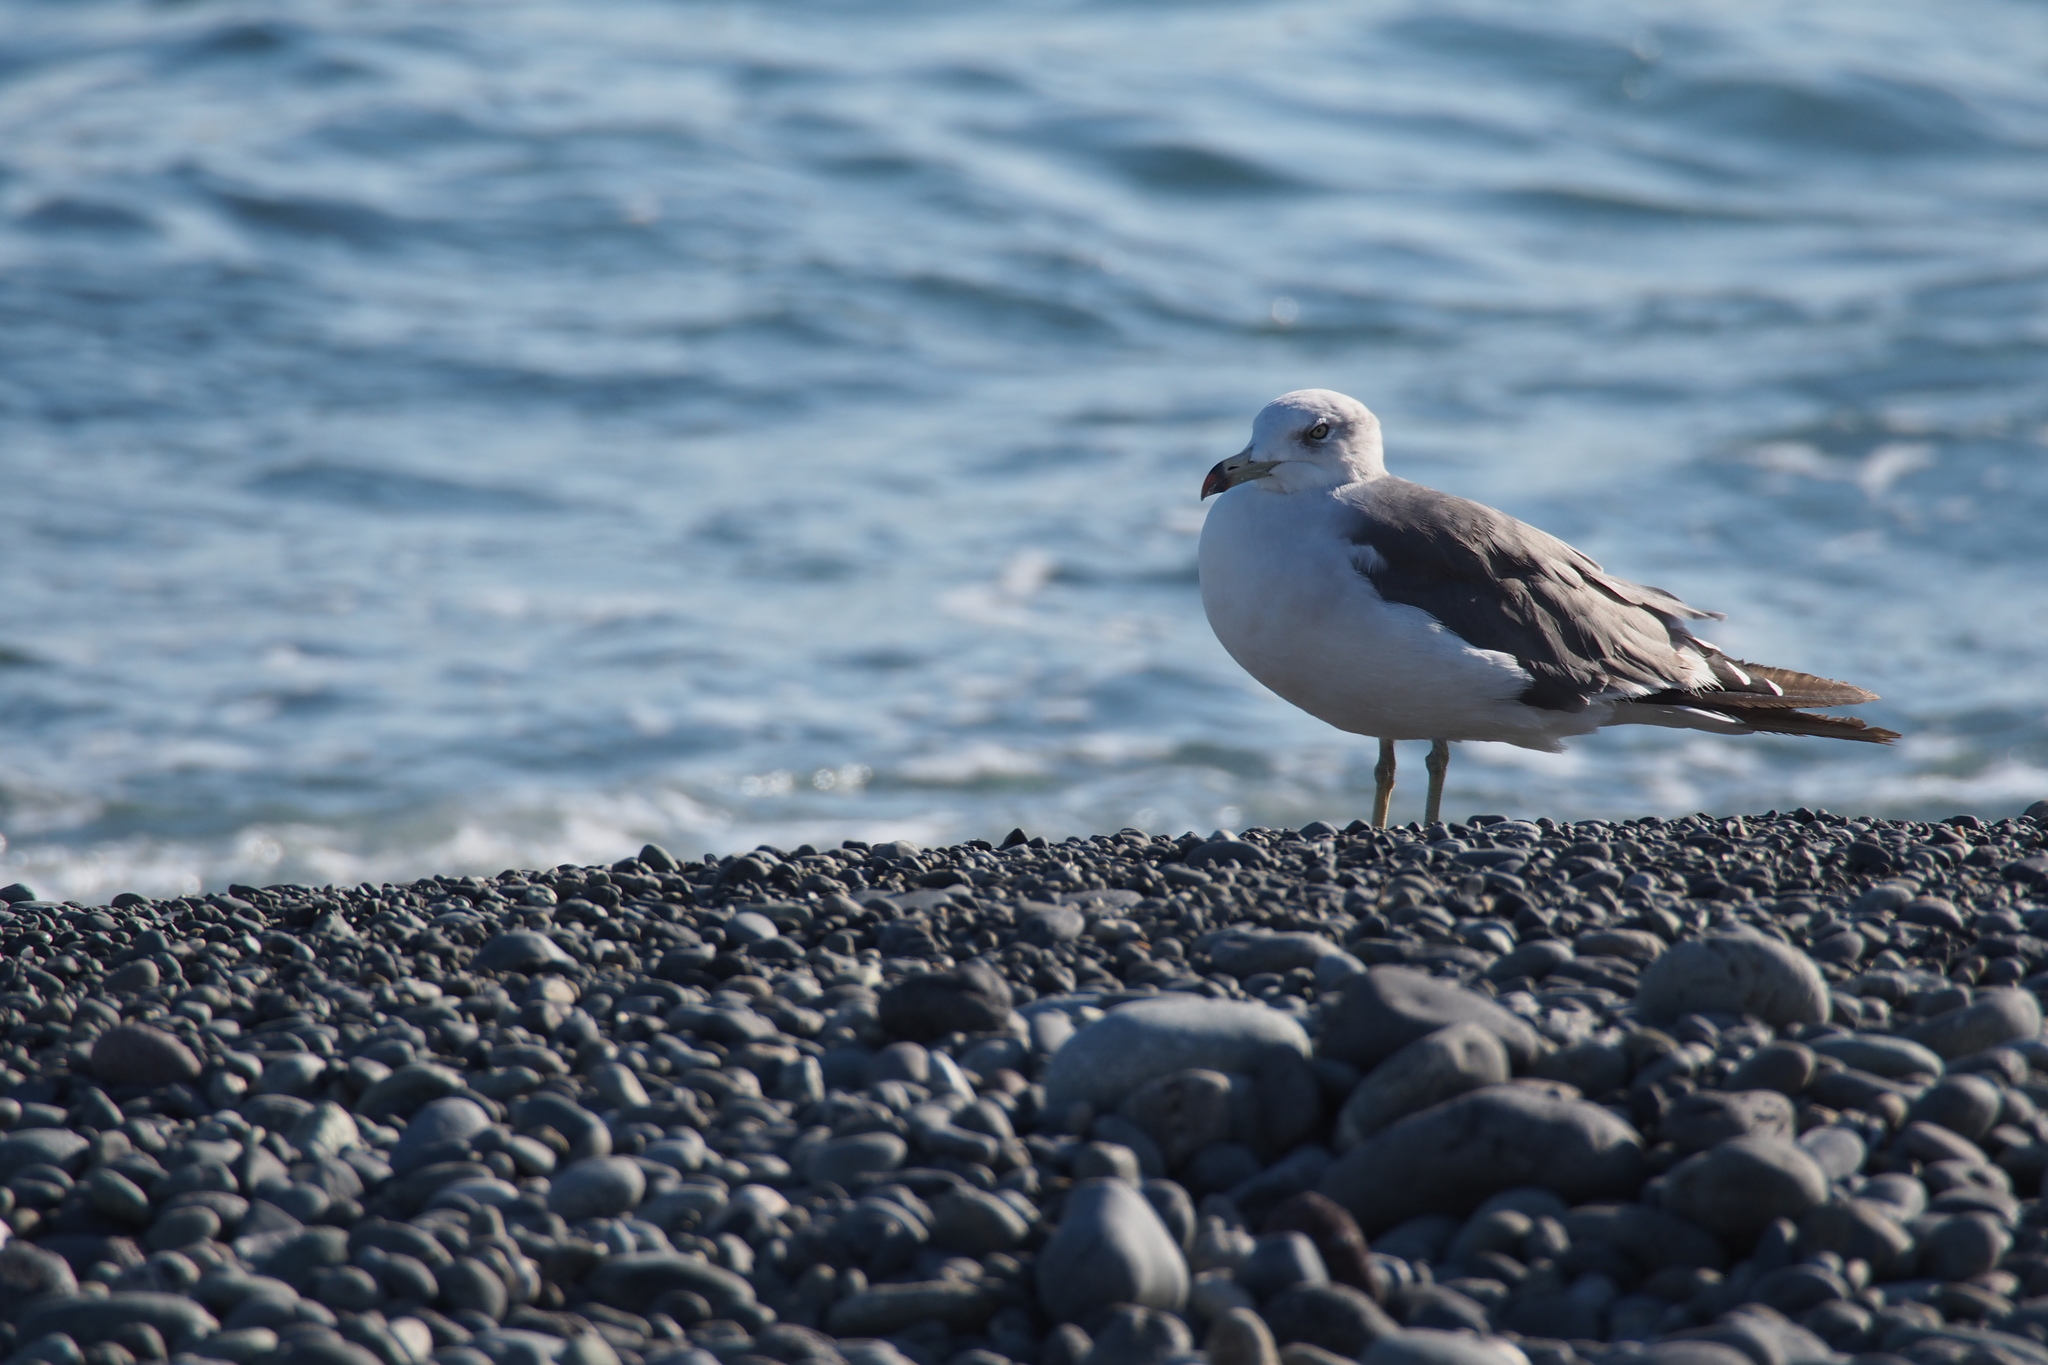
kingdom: Animalia
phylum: Chordata
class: Aves
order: Charadriiformes
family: Laridae
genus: Larus
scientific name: Larus crassirostris
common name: Black-tailed gull
